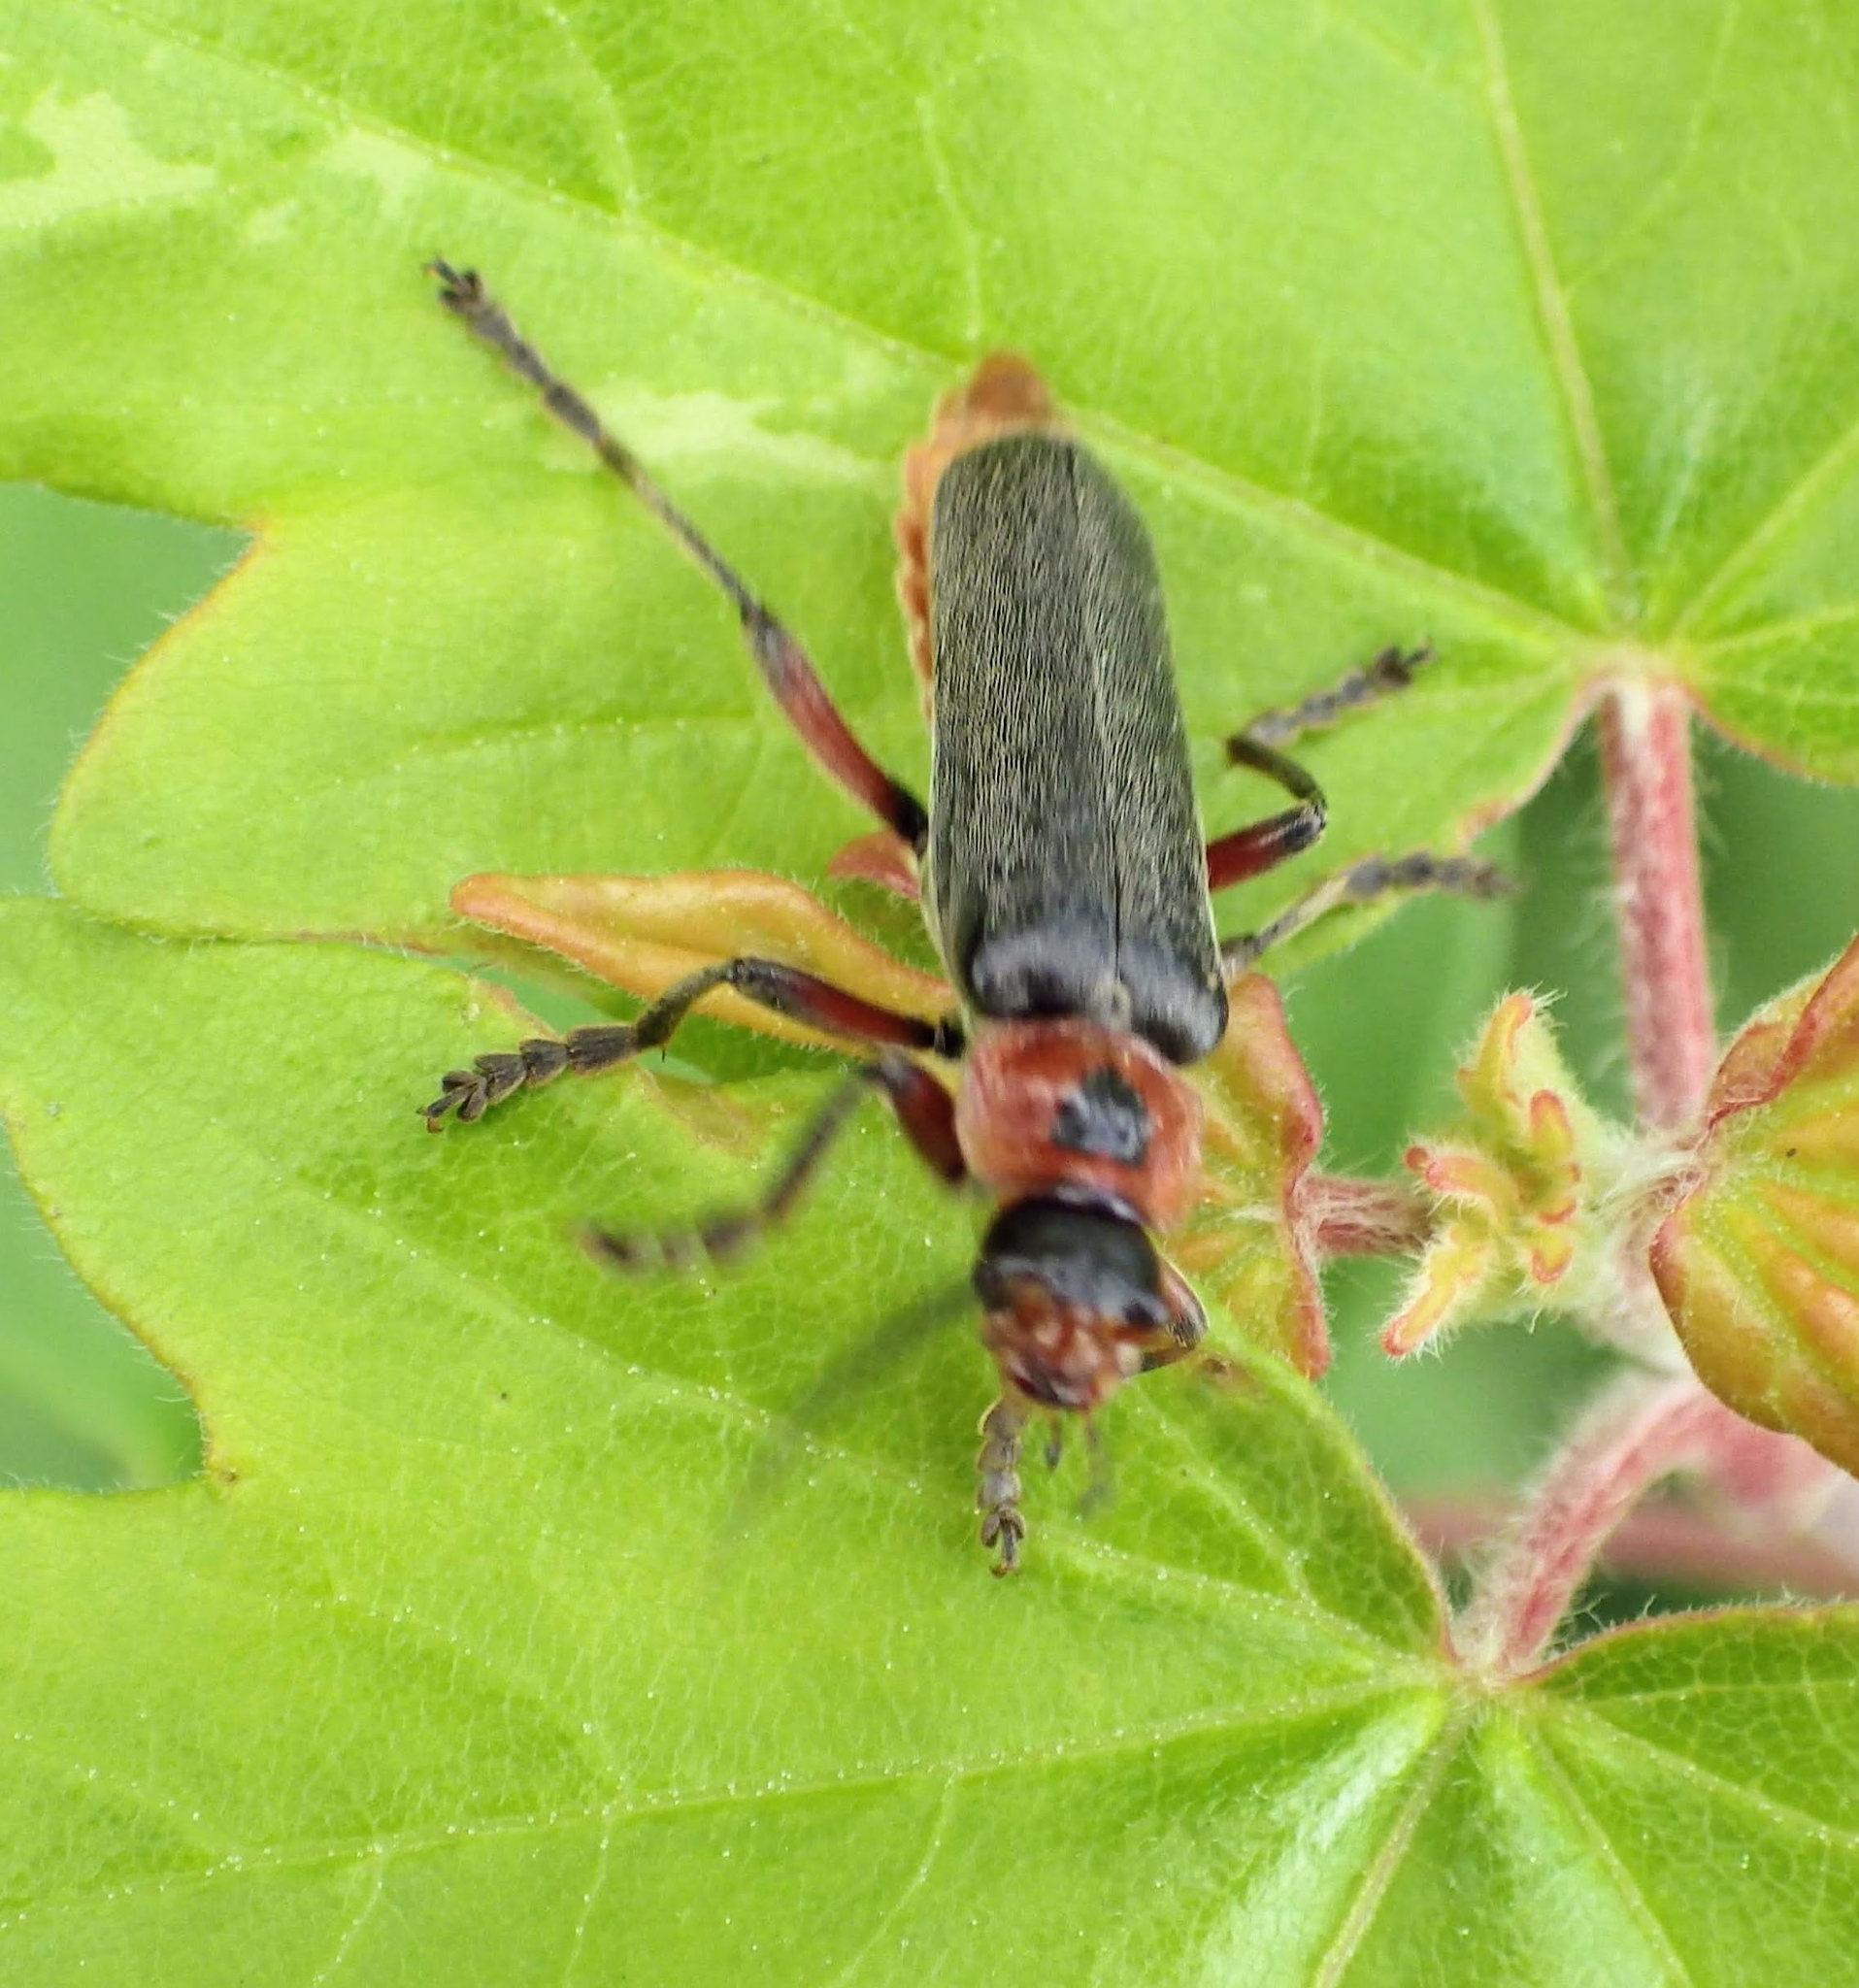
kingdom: Animalia
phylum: Arthropoda
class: Insecta
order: Coleoptera
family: Cantharidae
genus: Cantharis
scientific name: Cantharis rustica
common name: Soldier beetle
